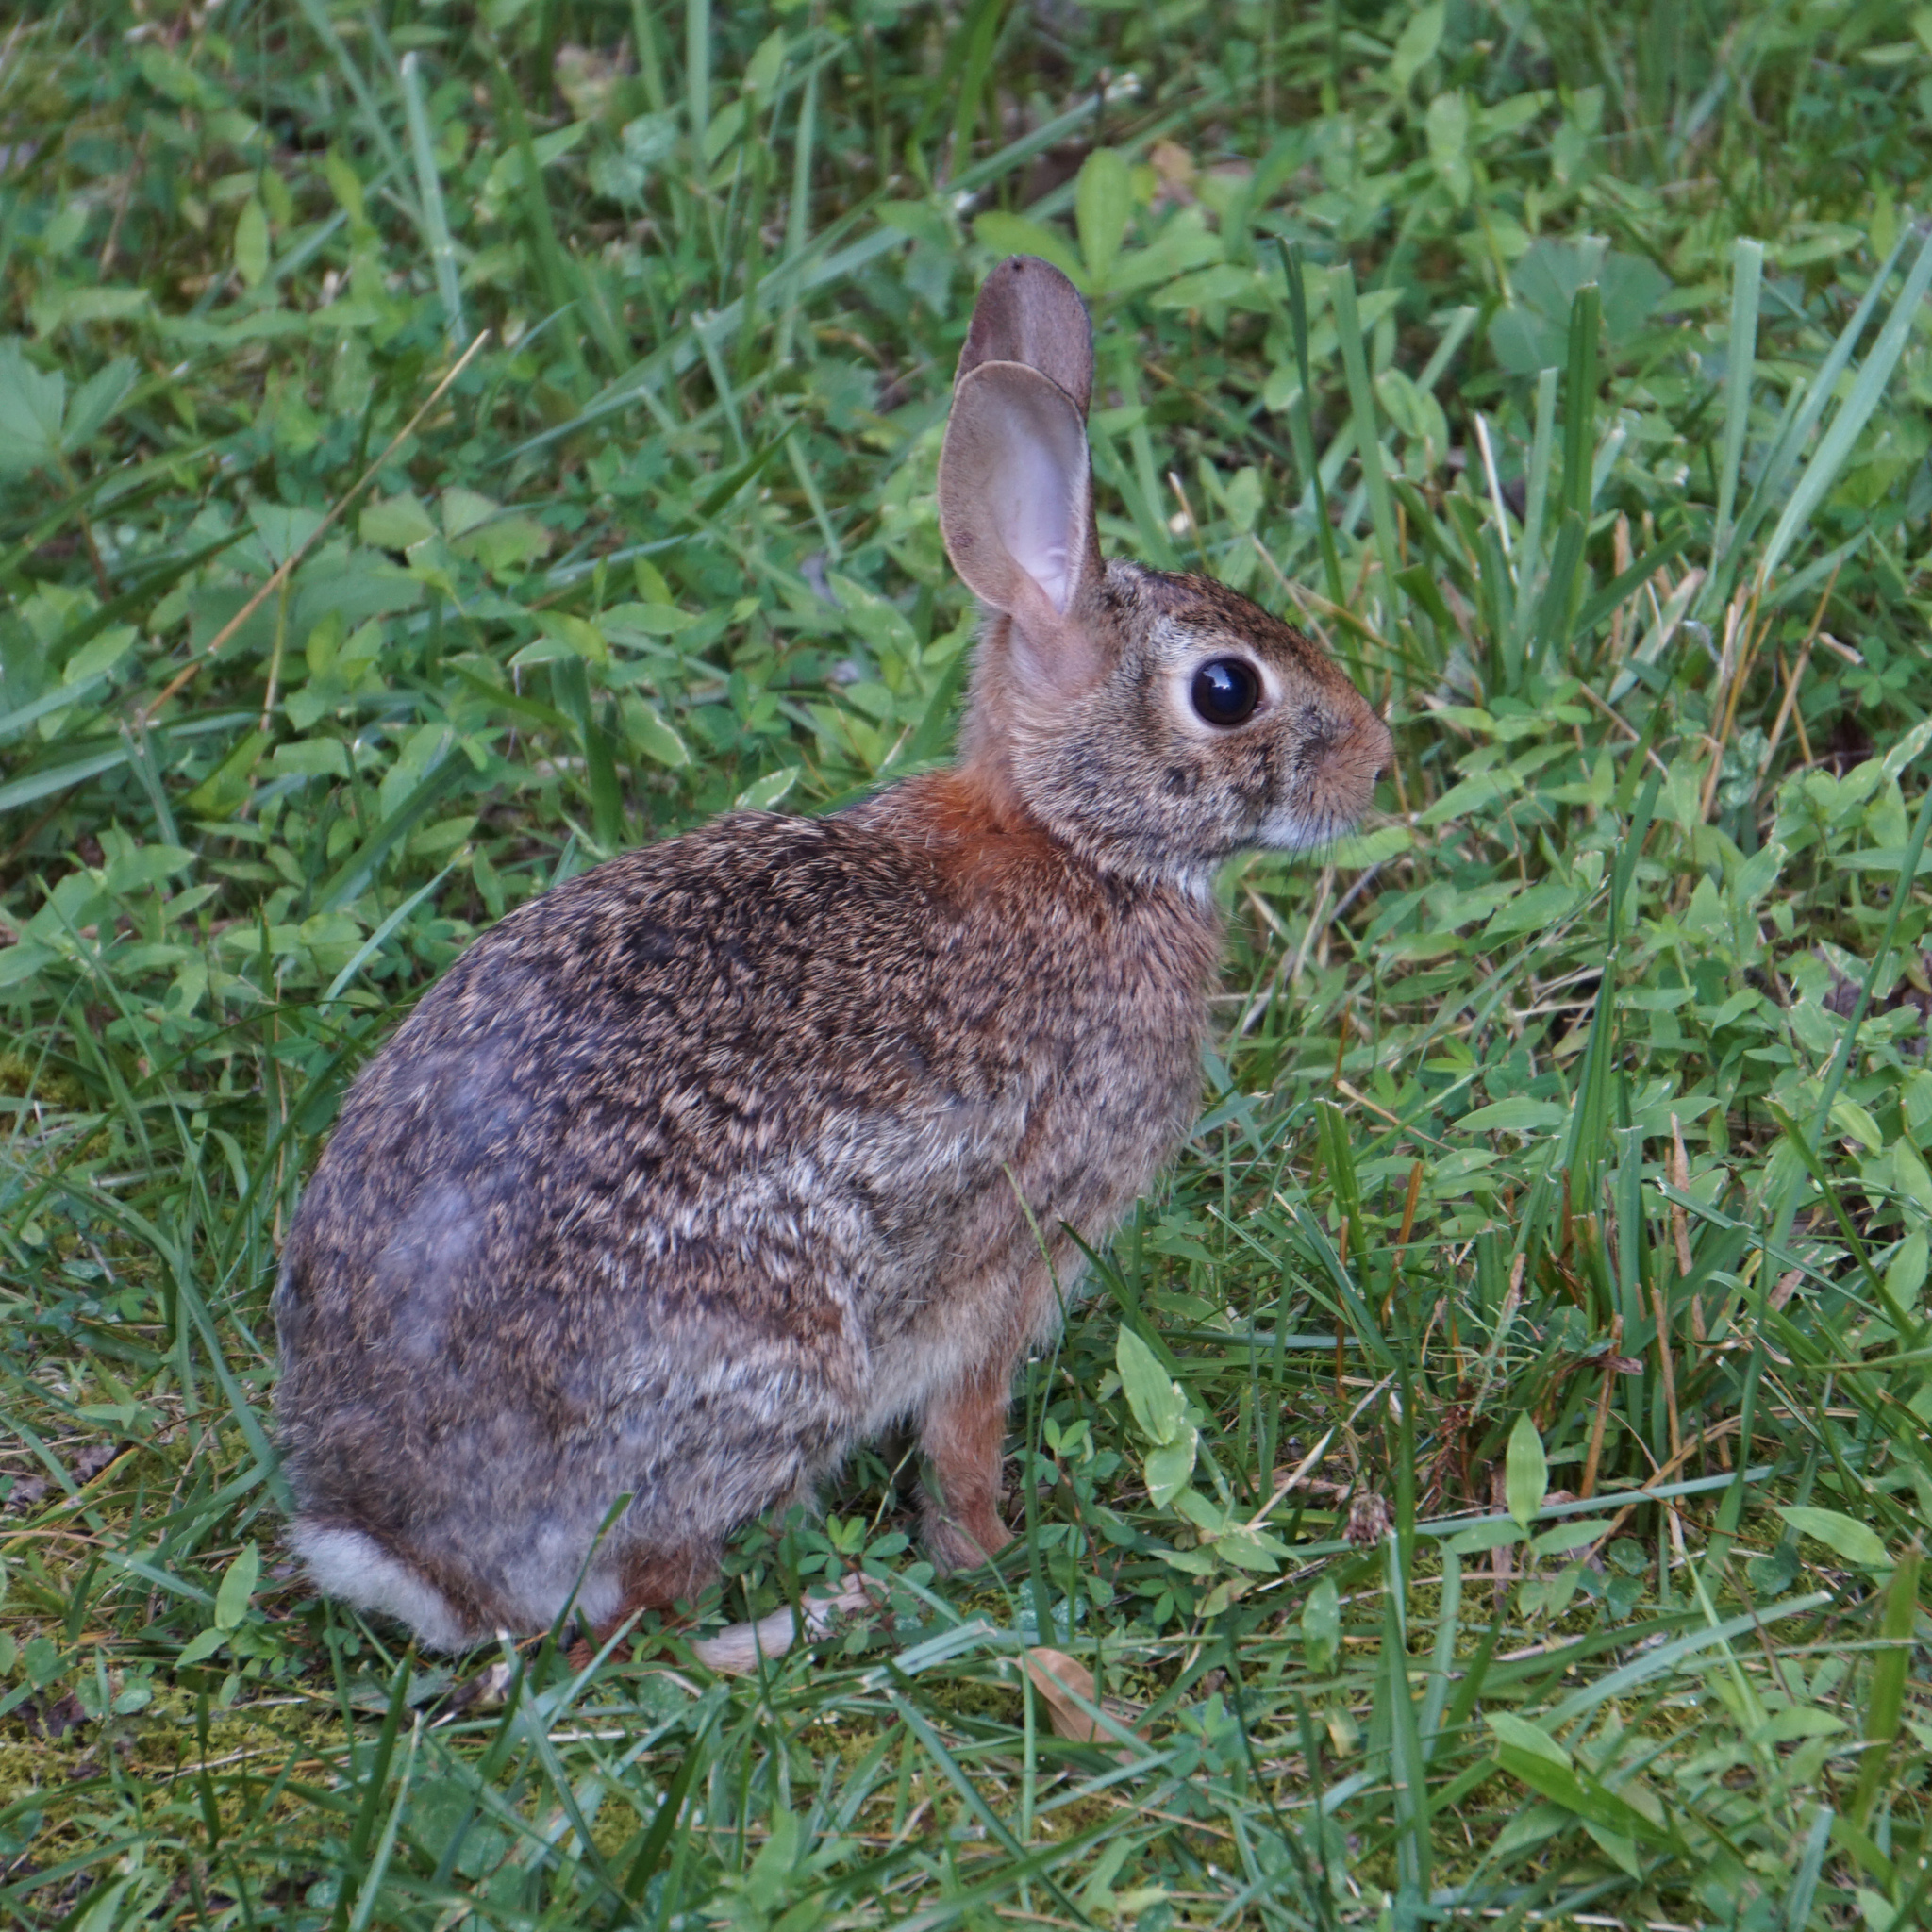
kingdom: Animalia
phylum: Chordata
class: Mammalia
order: Lagomorpha
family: Leporidae
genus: Sylvilagus
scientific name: Sylvilagus floridanus
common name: Eastern cottontail
